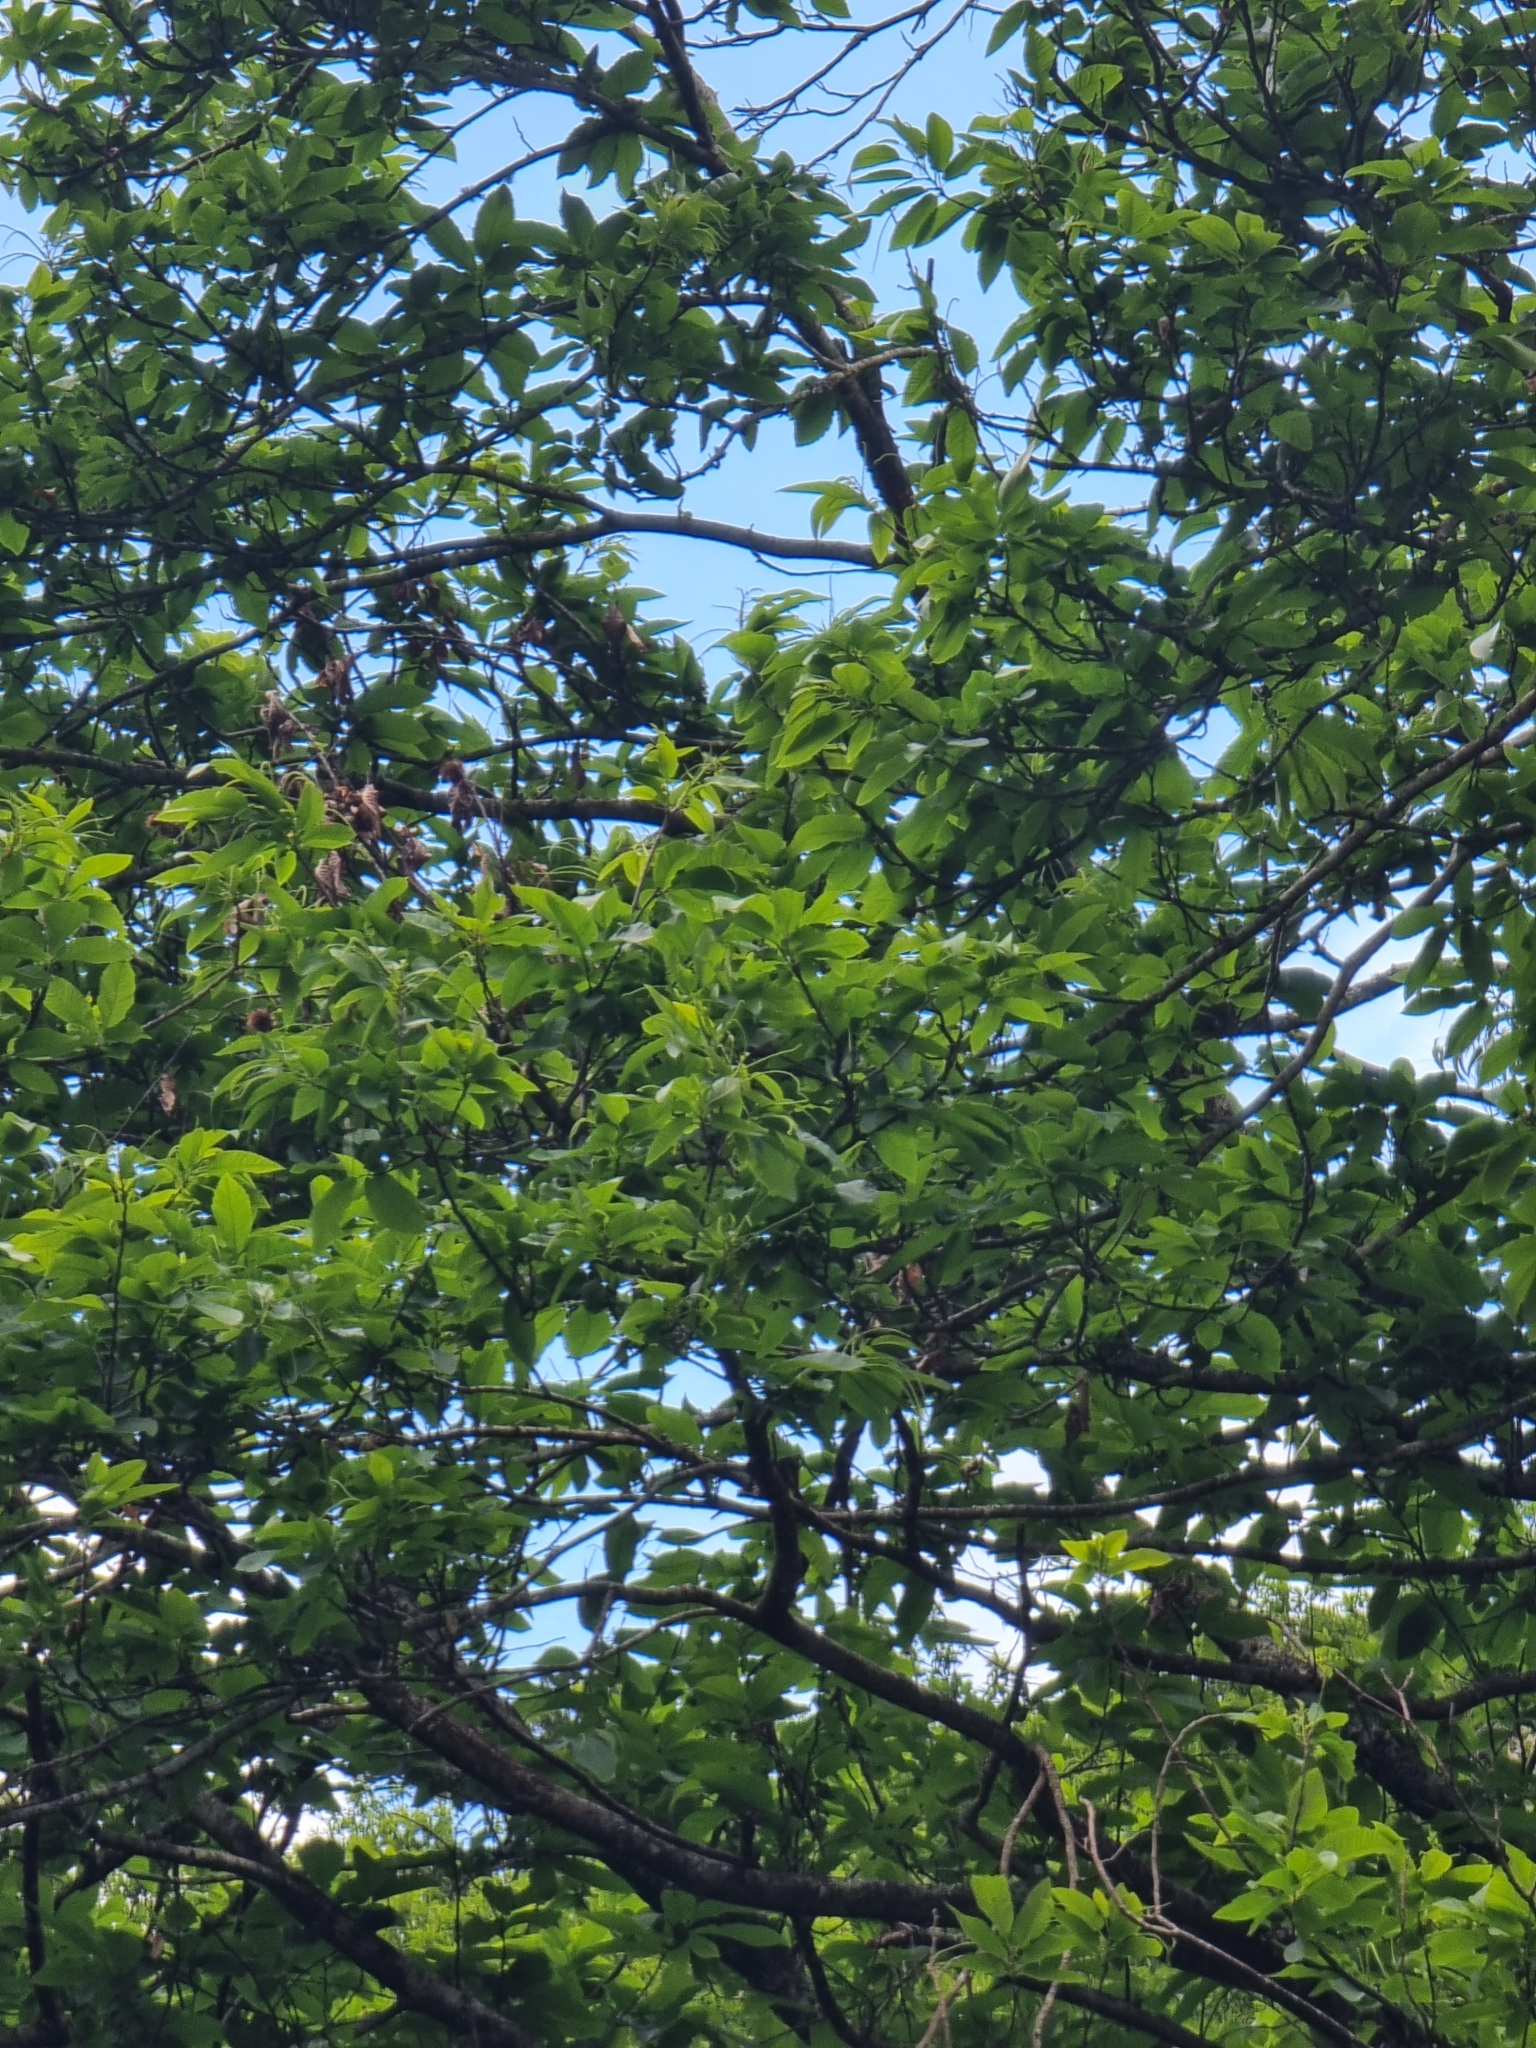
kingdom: Plantae
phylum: Tracheophyta
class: Magnoliopsida
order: Fagales
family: Fagaceae
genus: Castanea
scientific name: Castanea sativa
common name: Sweet chestnut
